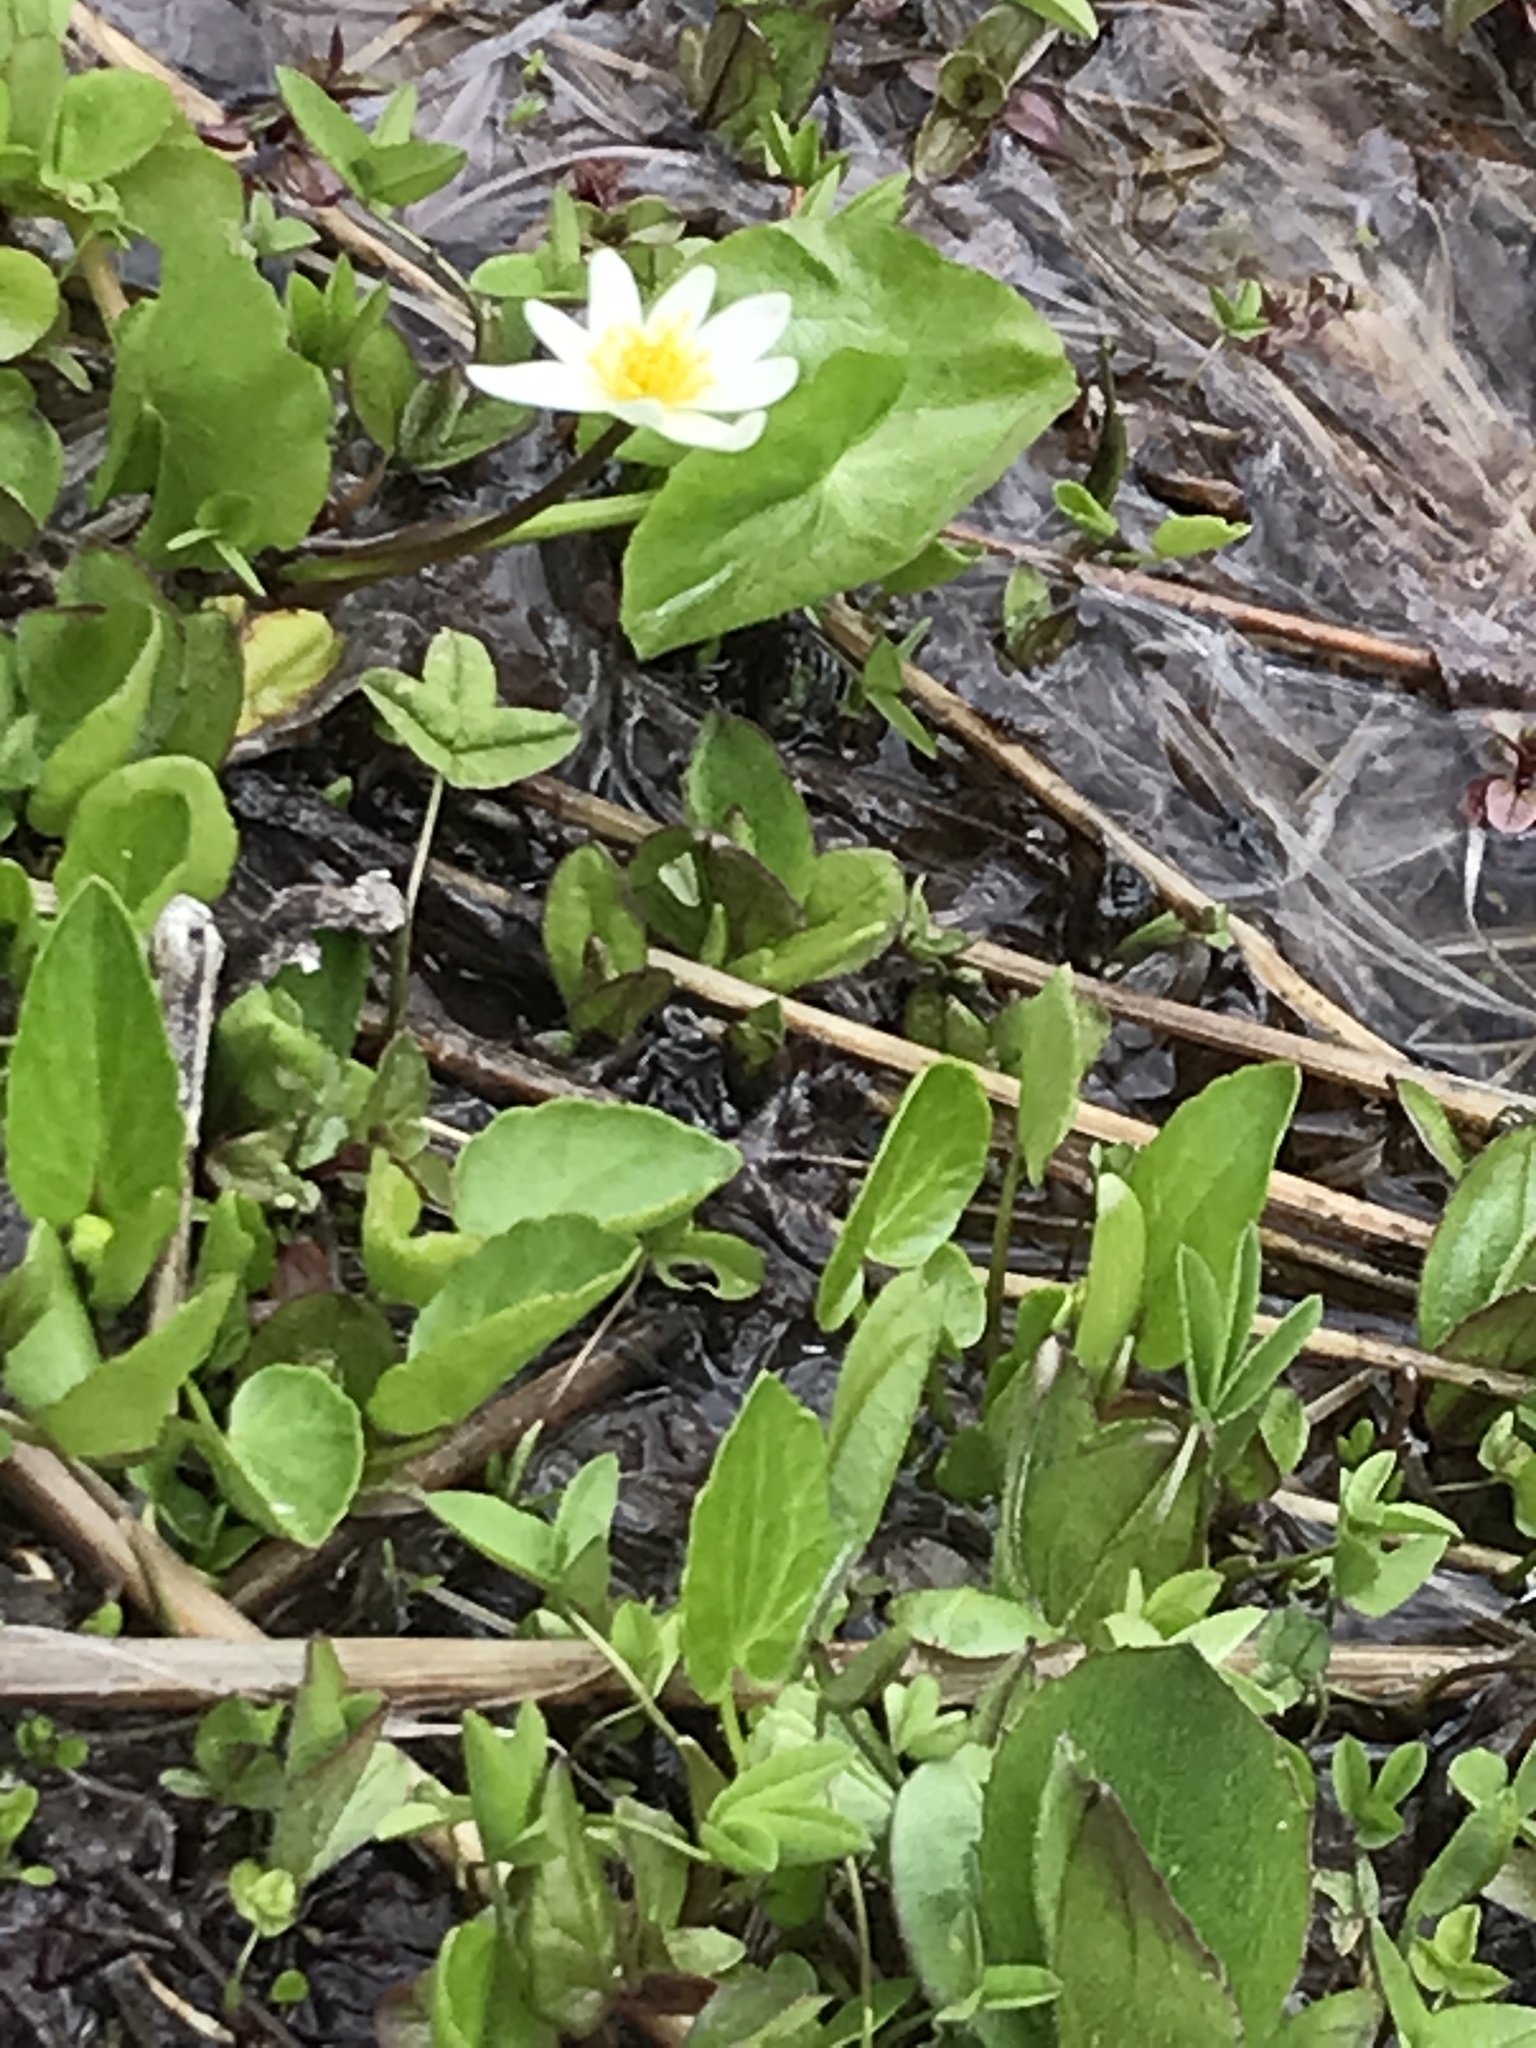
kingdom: Plantae
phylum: Tracheophyta
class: Magnoliopsida
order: Ranunculales
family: Ranunculaceae
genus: Caltha
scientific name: Caltha leptosepala
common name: Elkslip
